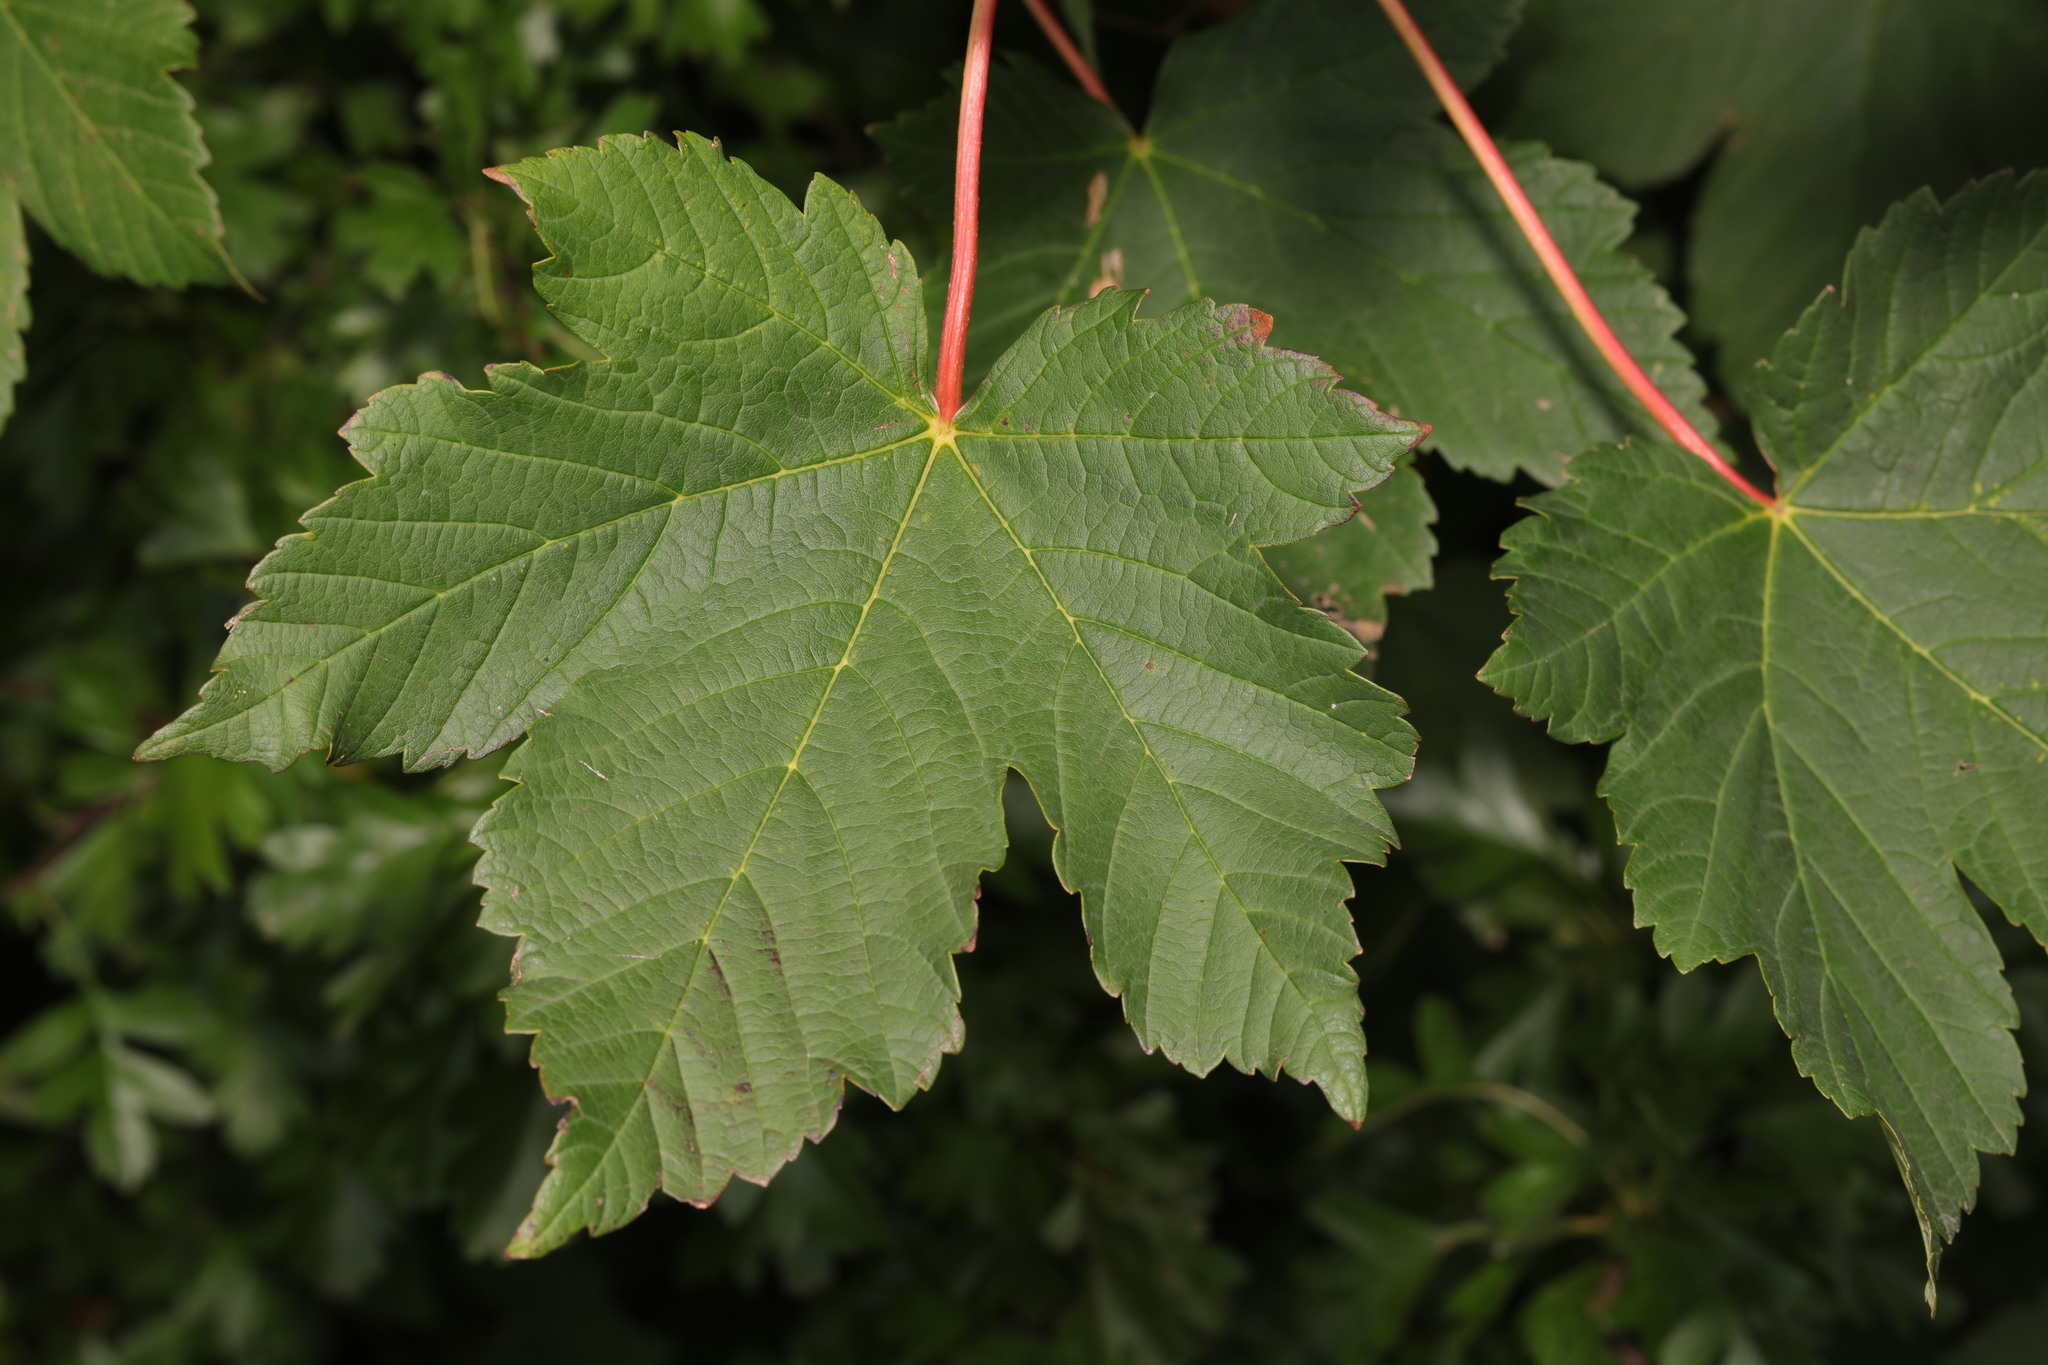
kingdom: Plantae
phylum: Tracheophyta
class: Magnoliopsida
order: Sapindales
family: Sapindaceae
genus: Acer
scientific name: Acer pseudoplatanus
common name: Sycamore
